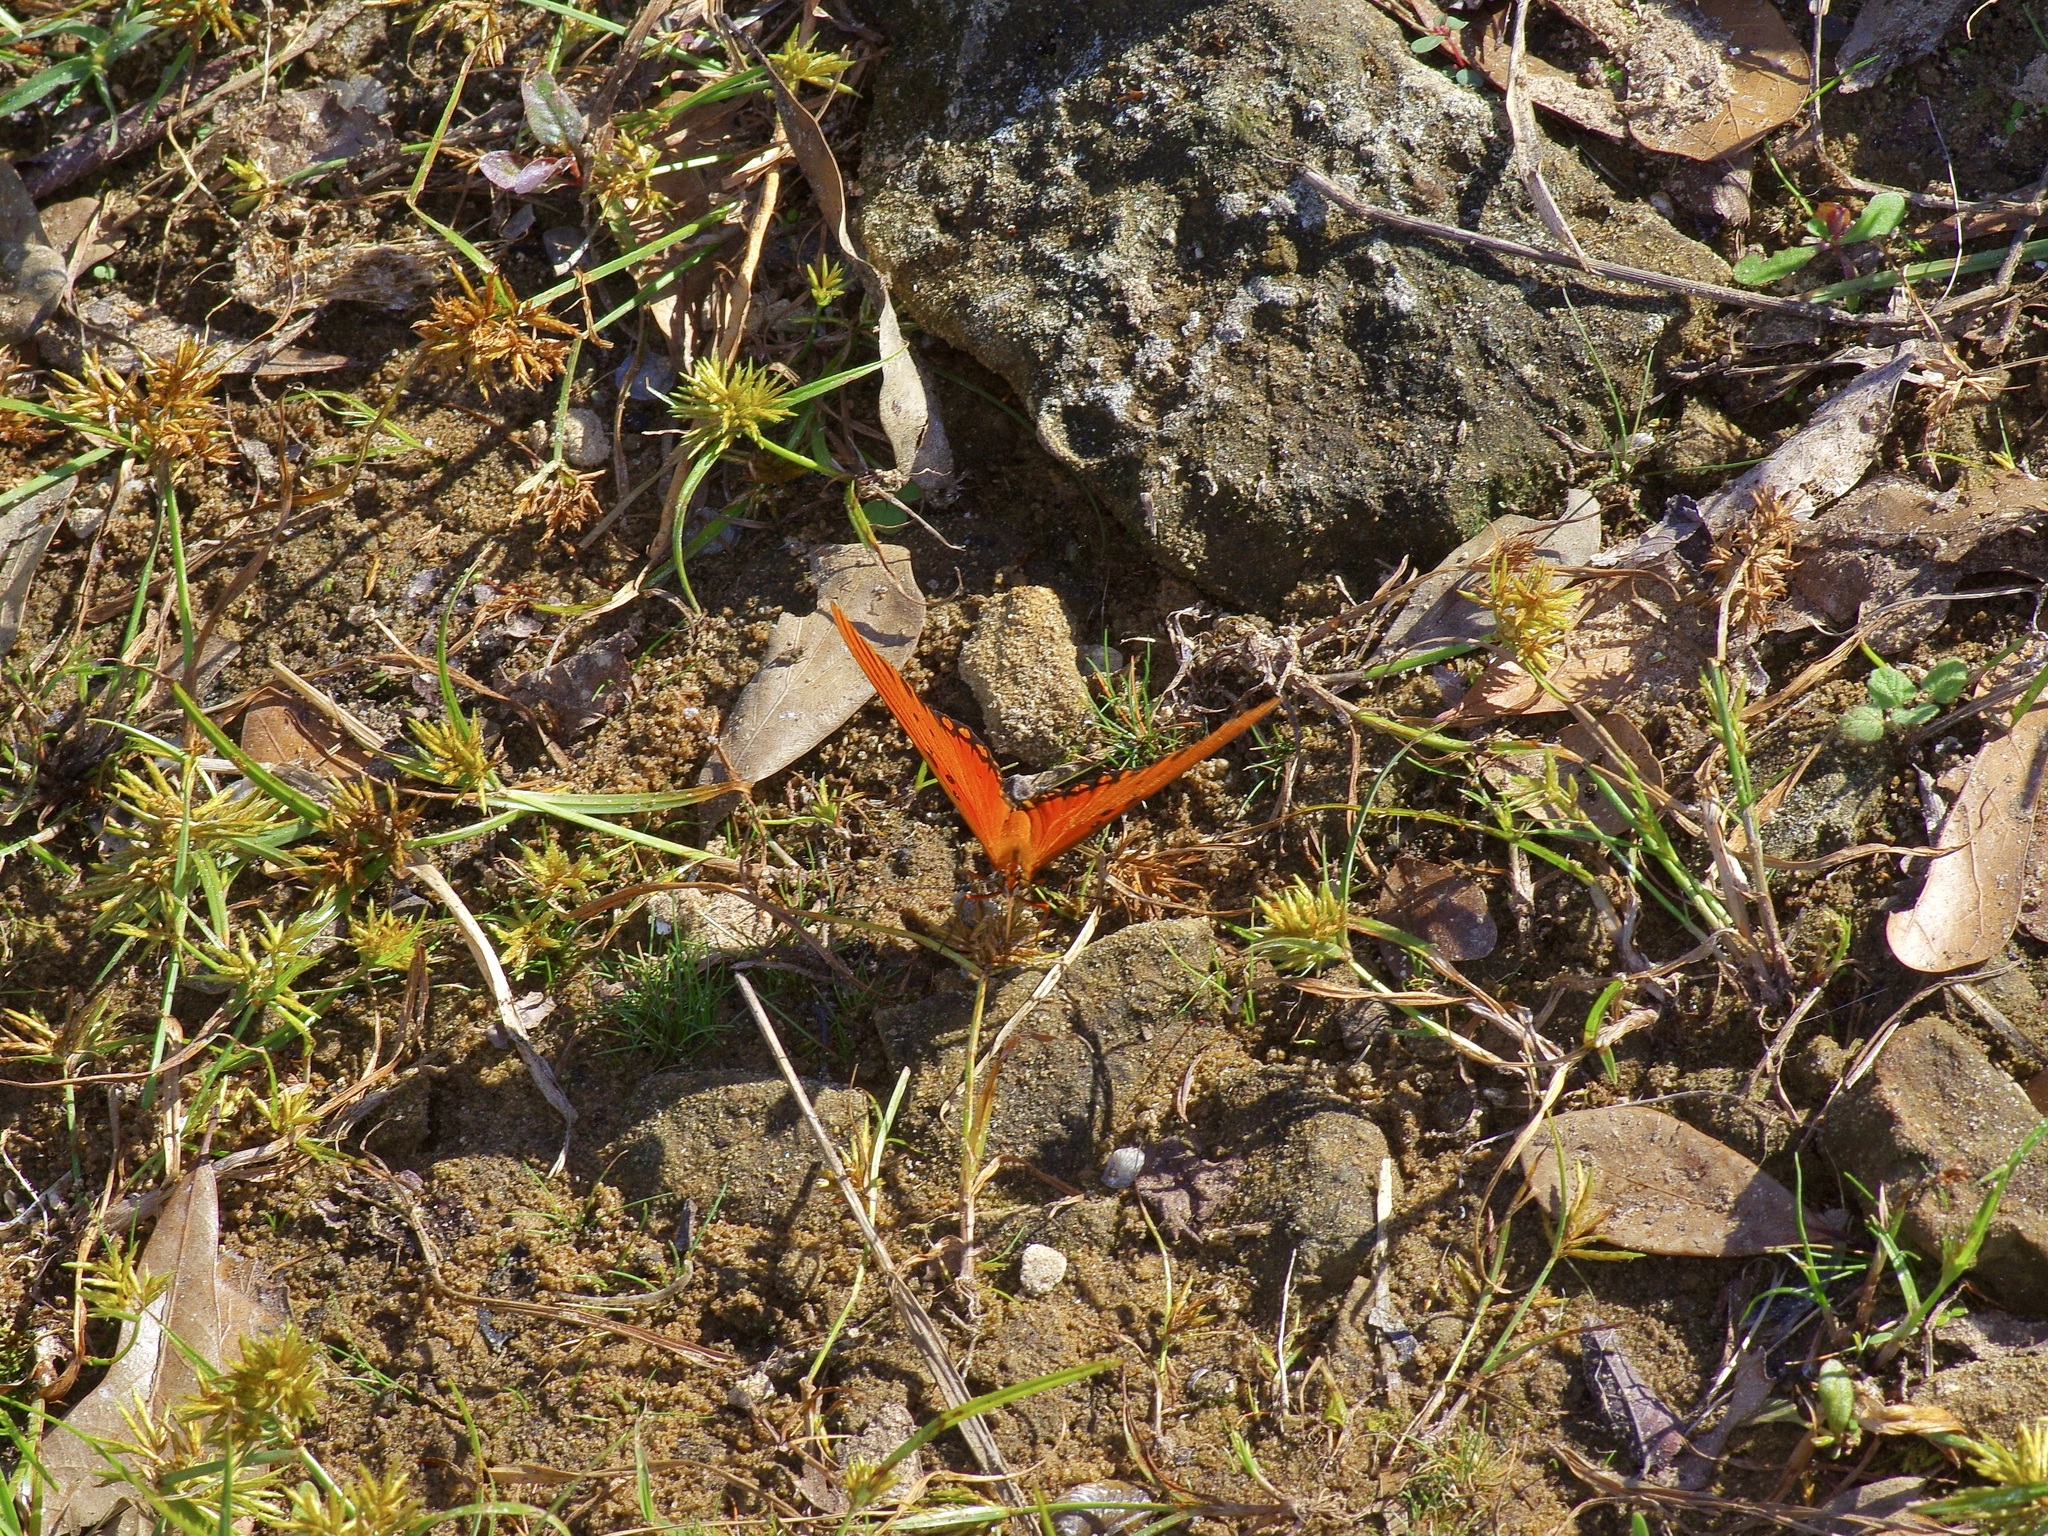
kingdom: Animalia
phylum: Arthropoda
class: Insecta
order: Lepidoptera
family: Nymphalidae
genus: Dione
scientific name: Dione vanillae
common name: Gulf fritillary
